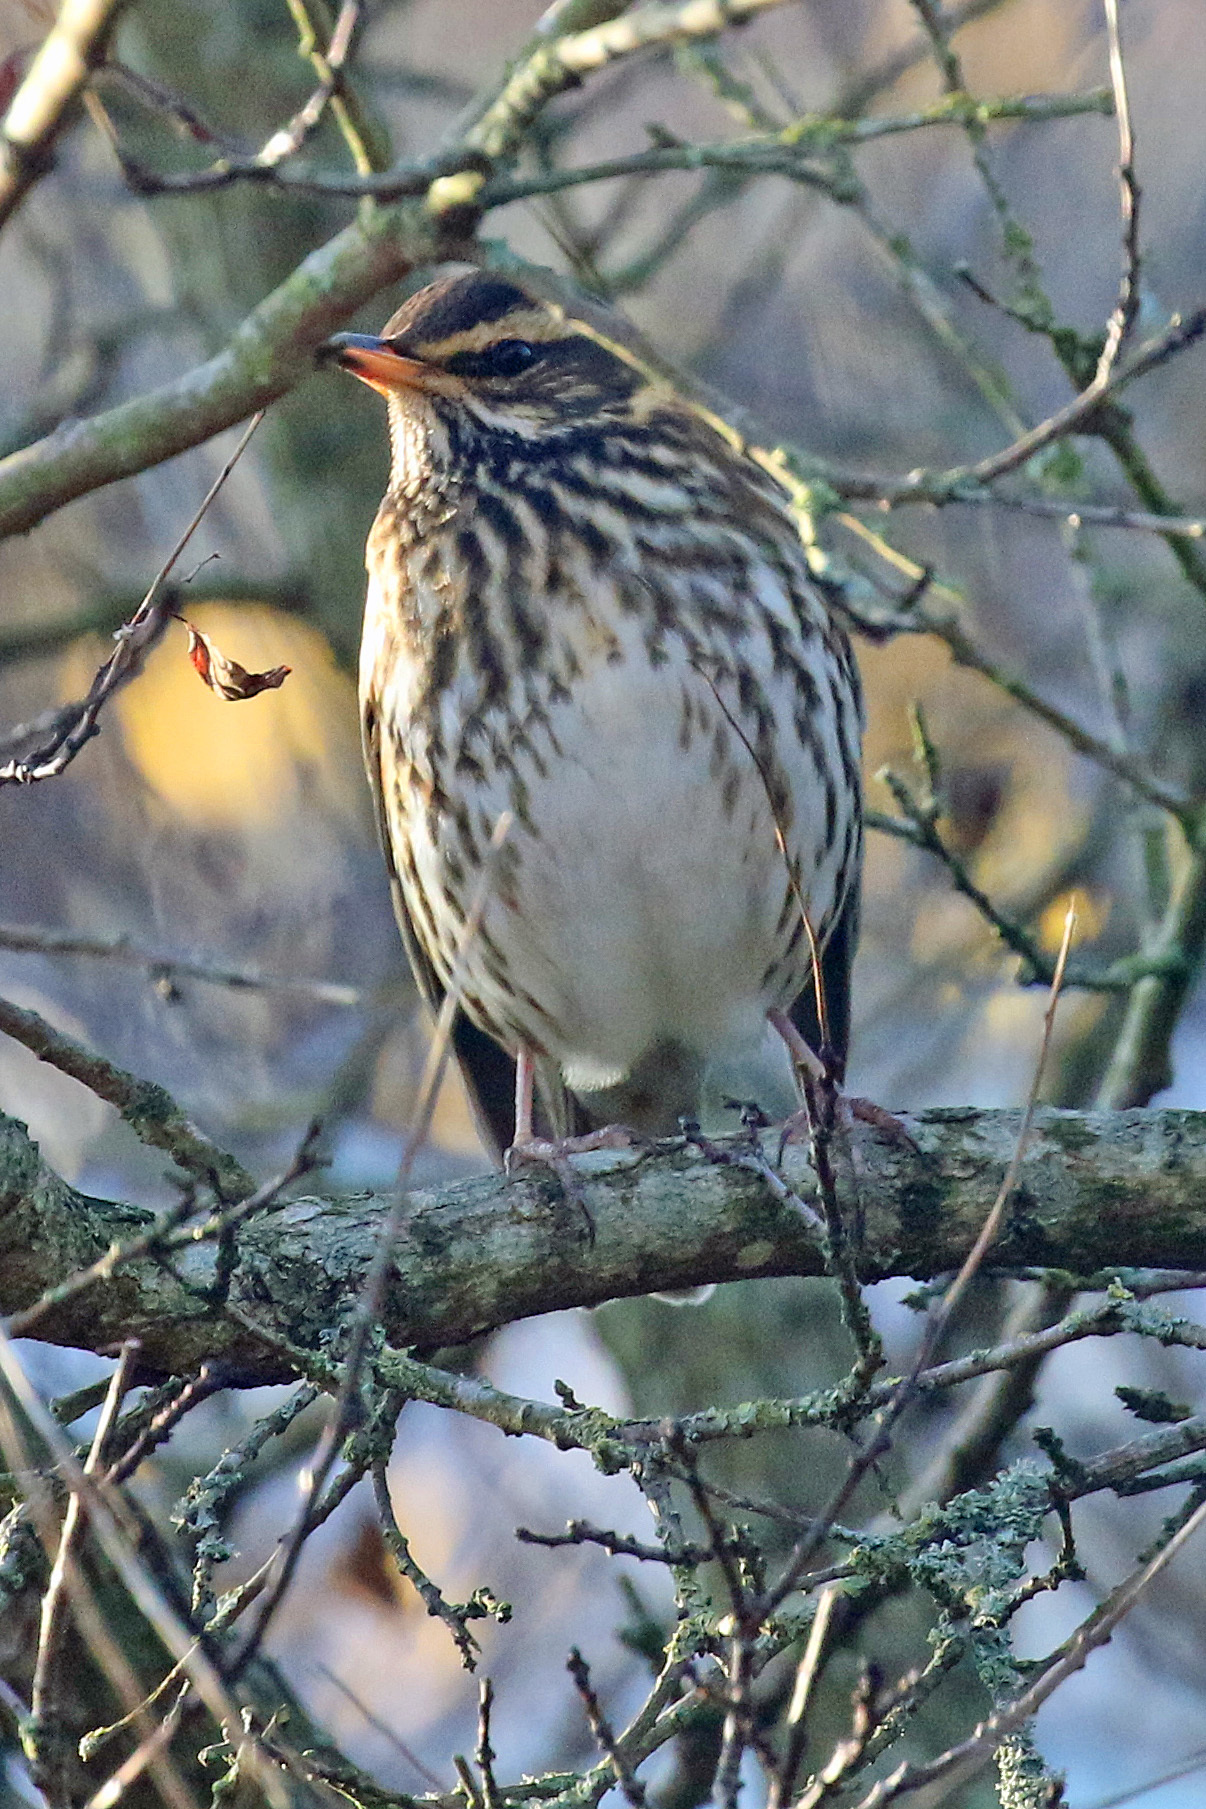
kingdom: Animalia
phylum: Chordata
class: Aves
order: Passeriformes
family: Turdidae
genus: Turdus
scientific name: Turdus iliacus
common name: Redwing
